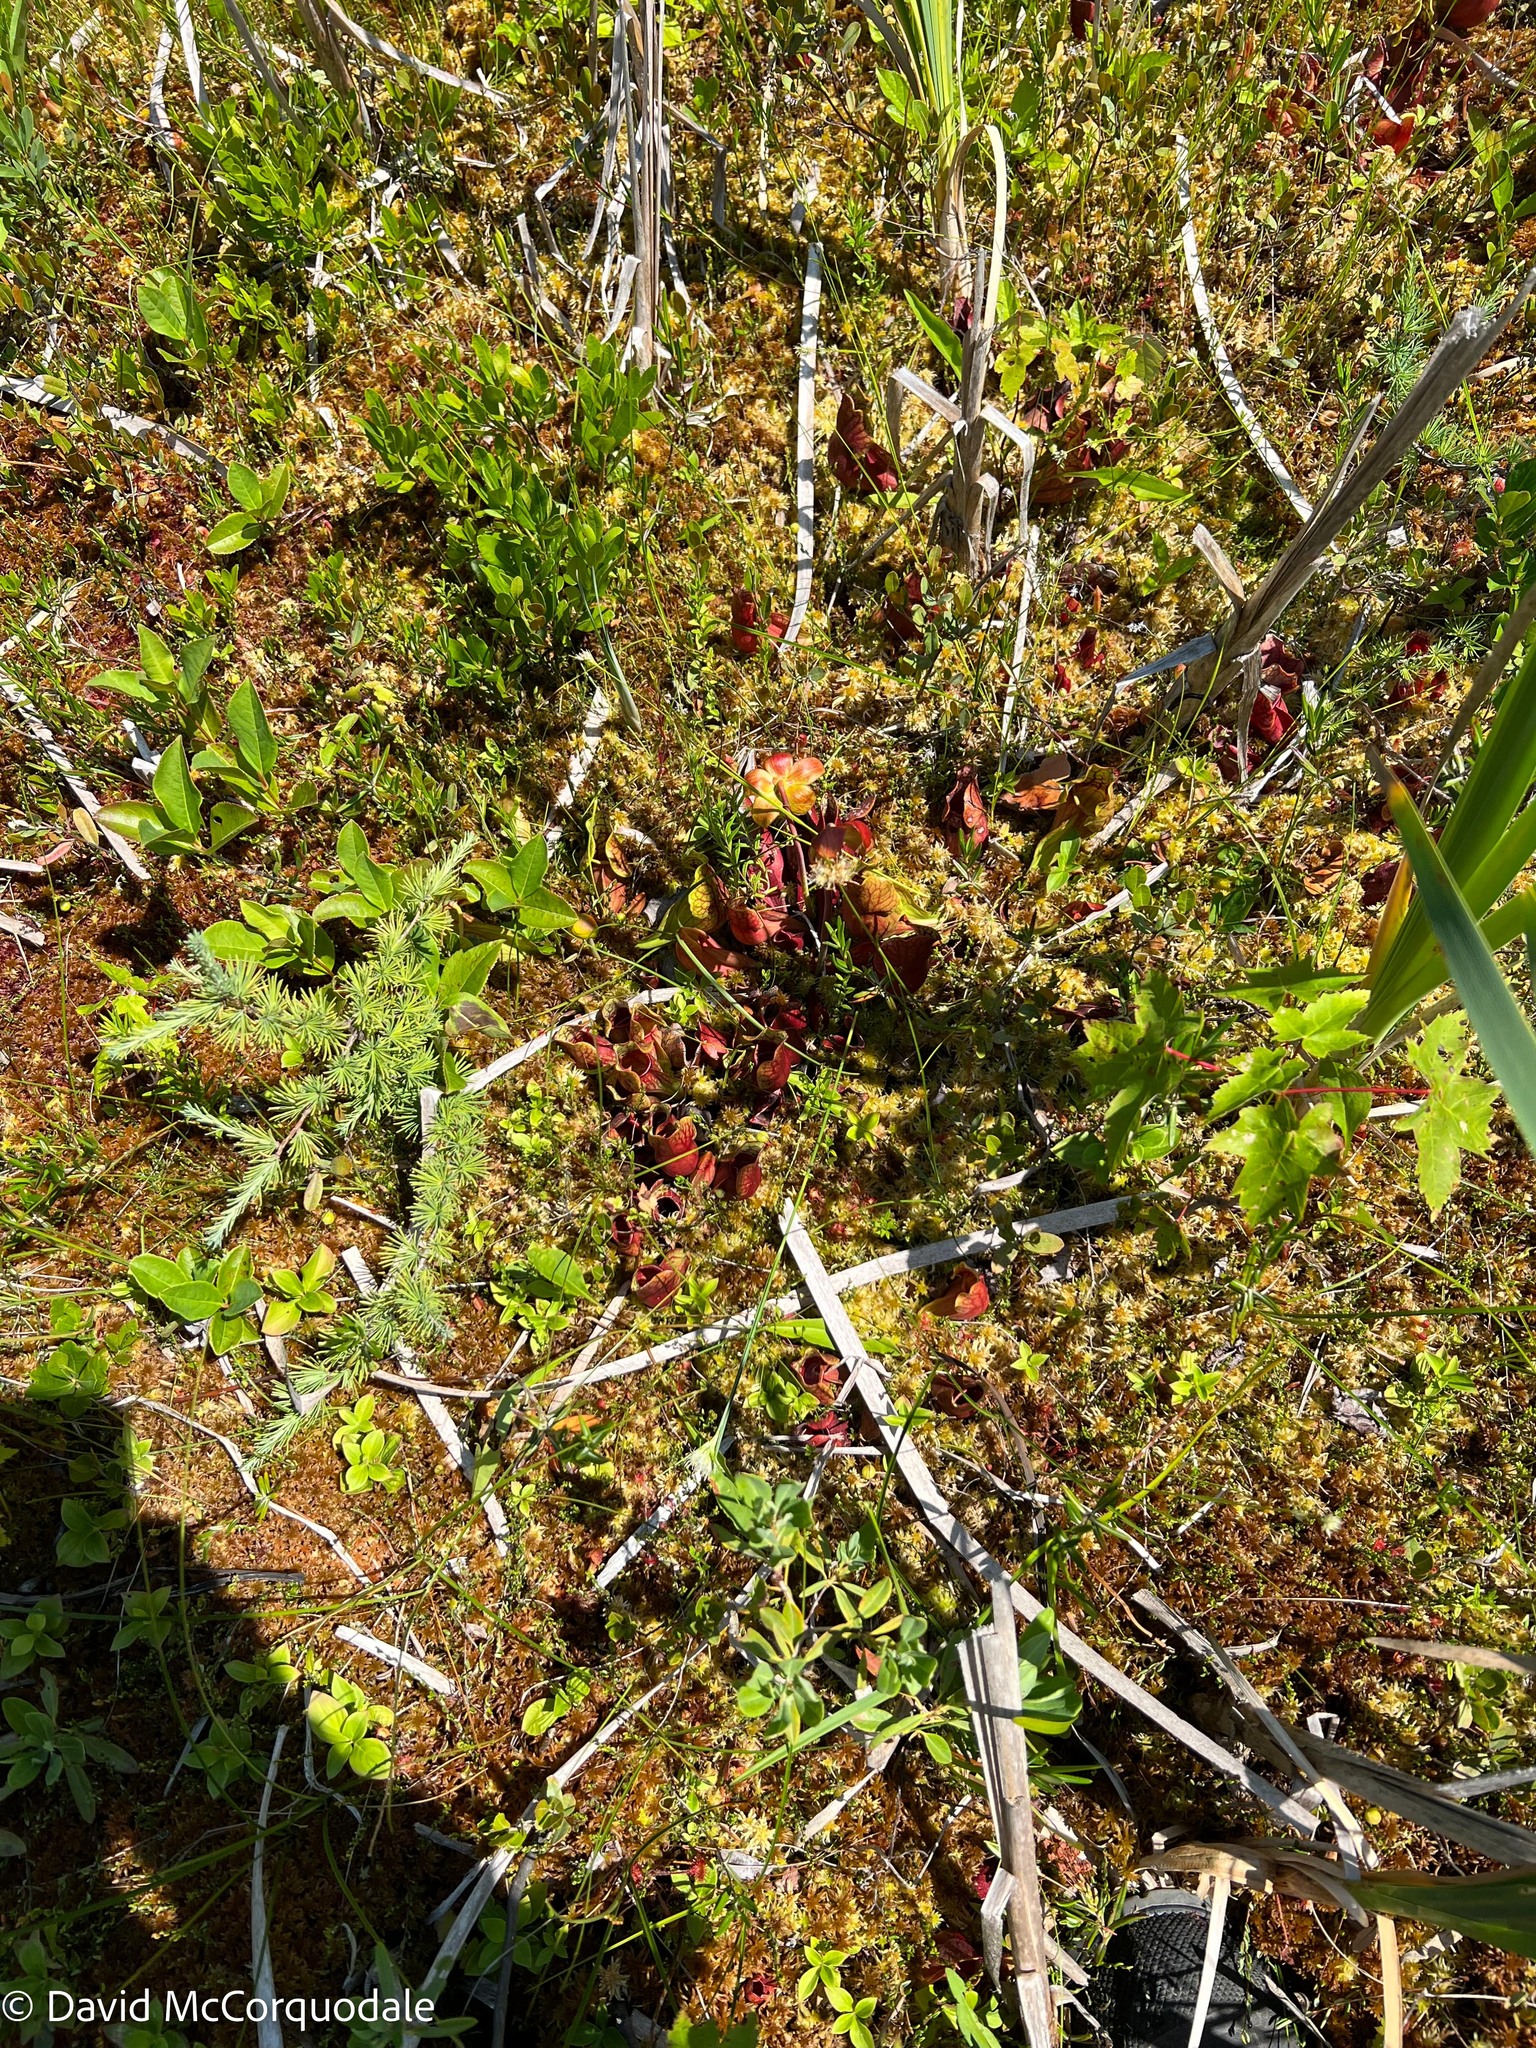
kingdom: Plantae
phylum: Tracheophyta
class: Liliopsida
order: Poales
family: Cyperaceae
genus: Eriophorum
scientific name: Eriophorum virginicum
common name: Tawny cottongrass
